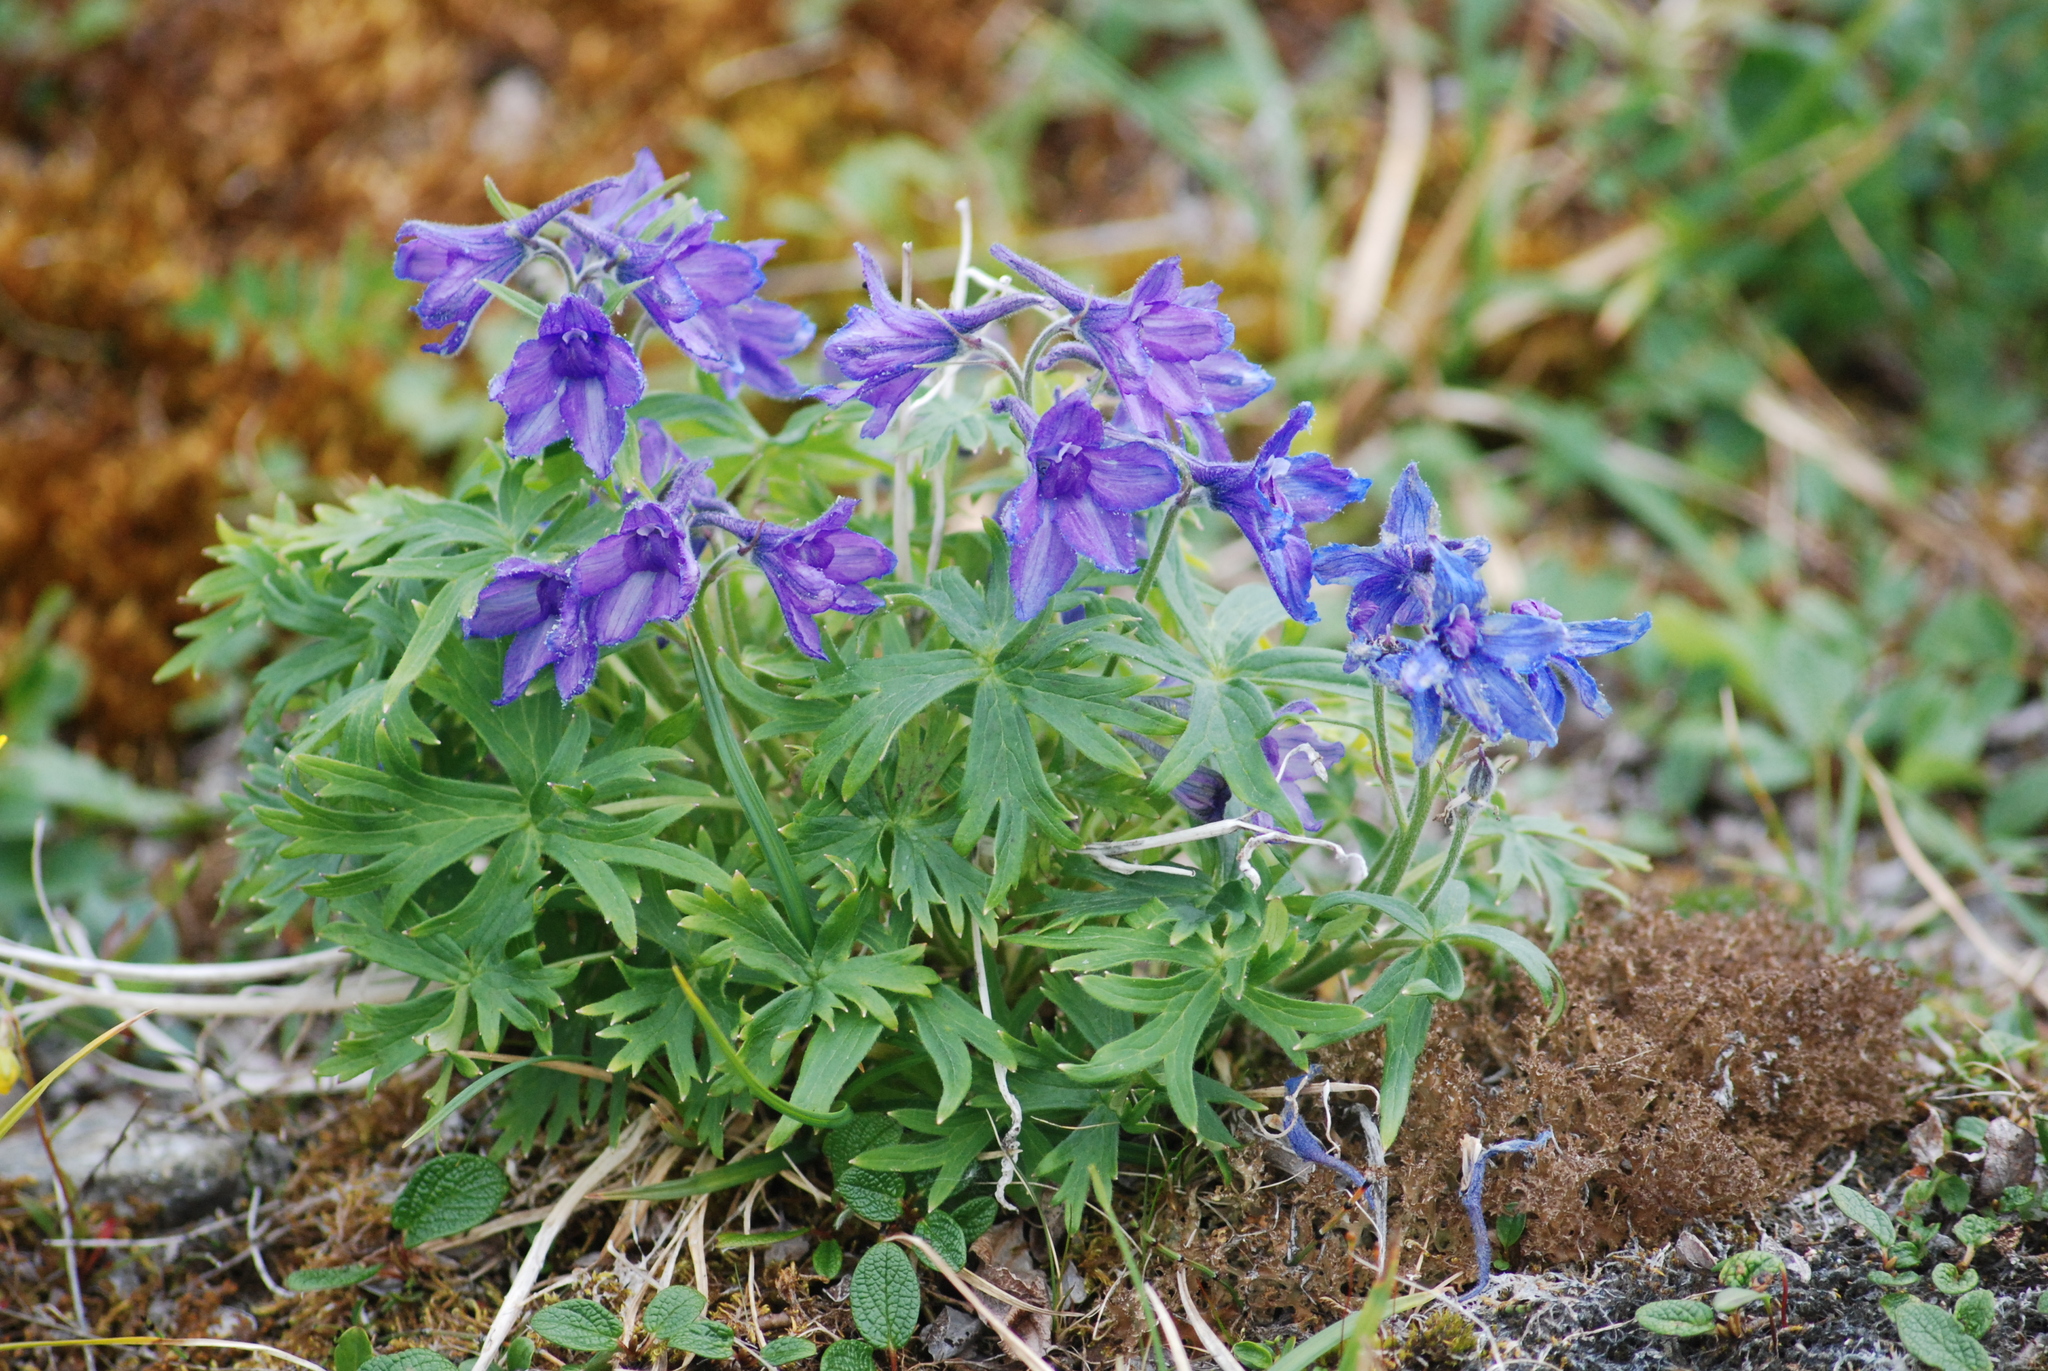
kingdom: Plantae
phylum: Tracheophyta
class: Magnoliopsida
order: Ranunculales
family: Ranunculaceae
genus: Delphinium
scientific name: Delphinium chamissonis
